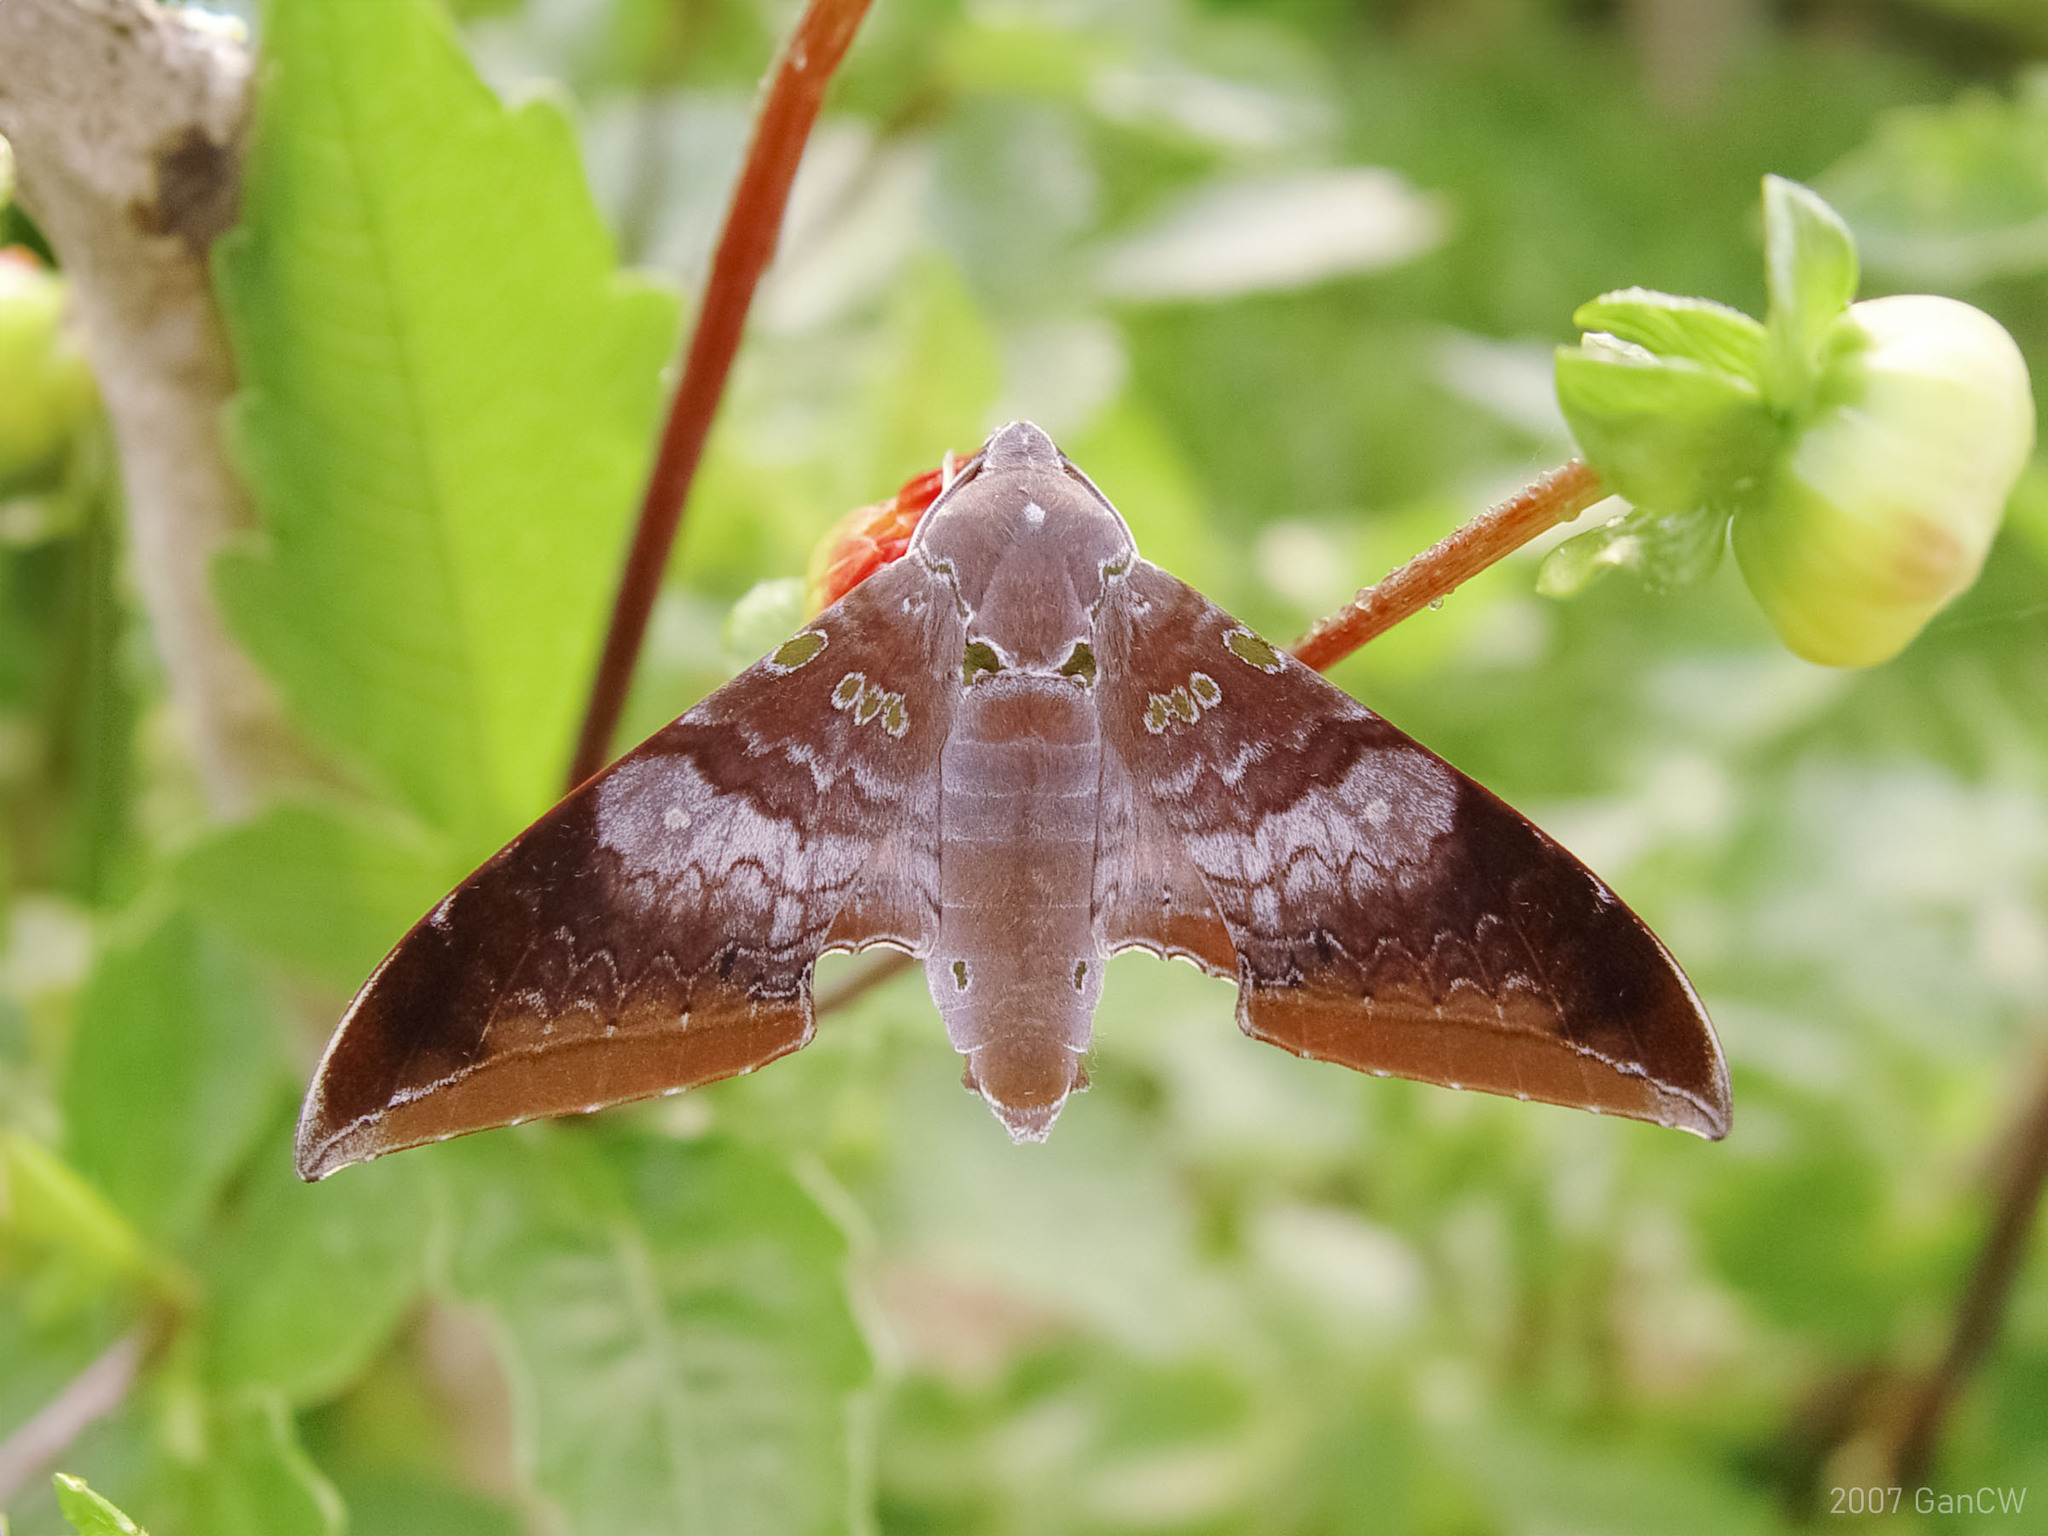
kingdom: Animalia
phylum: Arthropoda
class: Insecta
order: Lepidoptera
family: Sphingidae
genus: Ambulyx
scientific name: Ambulyx moorei
